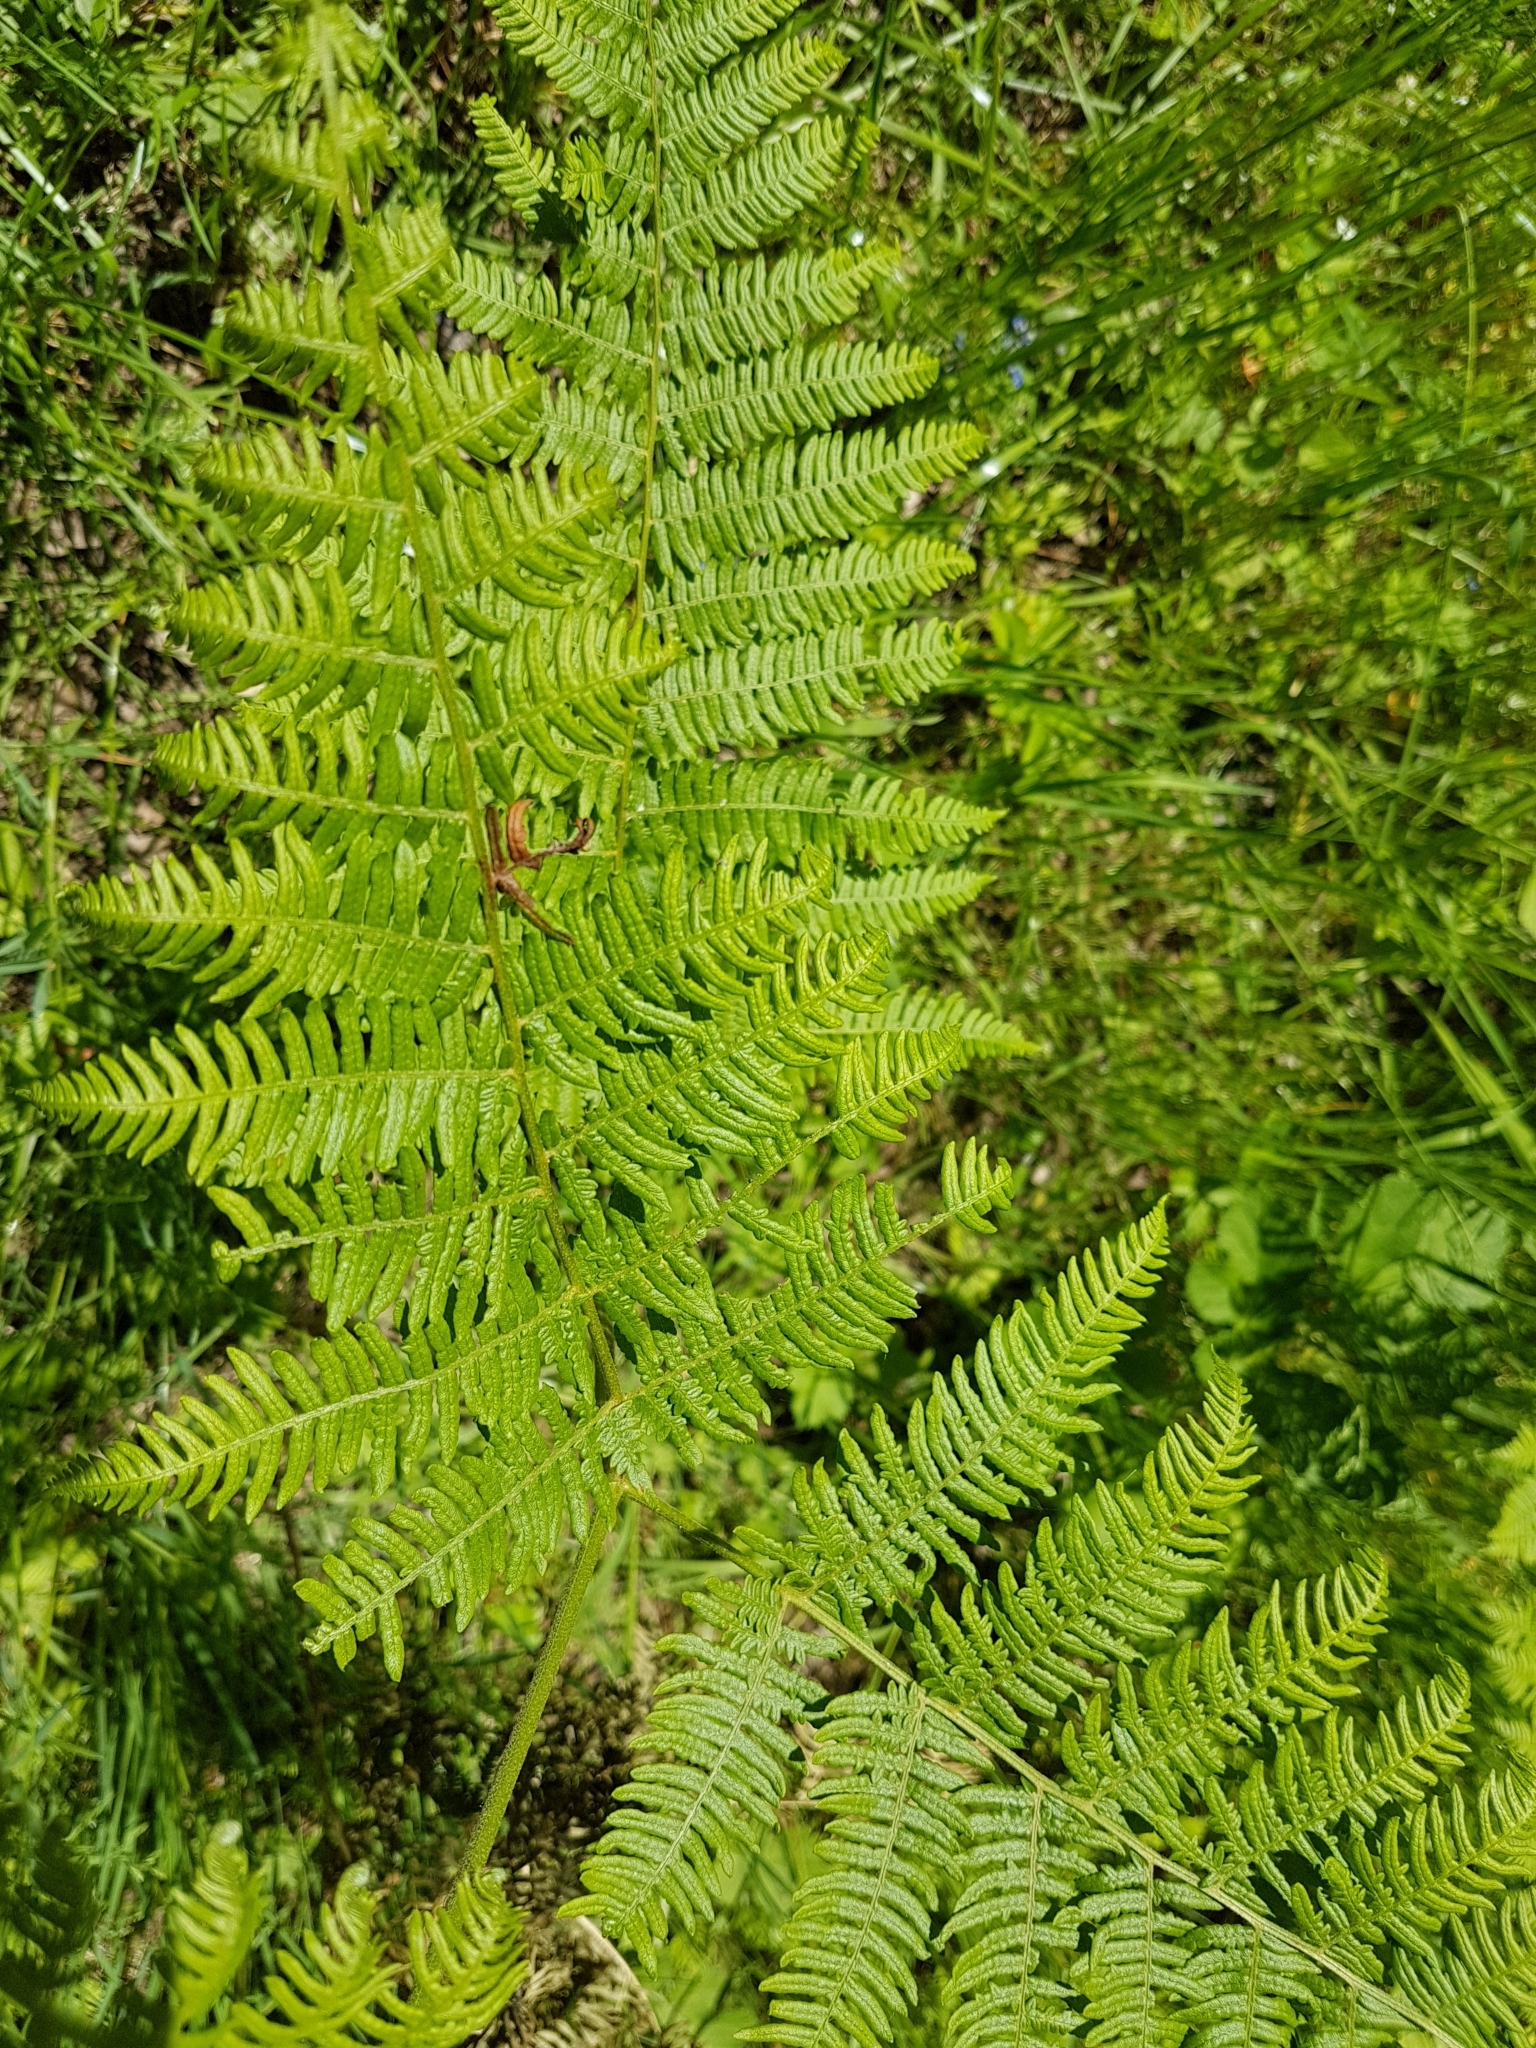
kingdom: Plantae
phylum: Tracheophyta
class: Polypodiopsida
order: Polypodiales
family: Dennstaedtiaceae
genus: Pteridium
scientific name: Pteridium aquilinum
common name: Bracken
